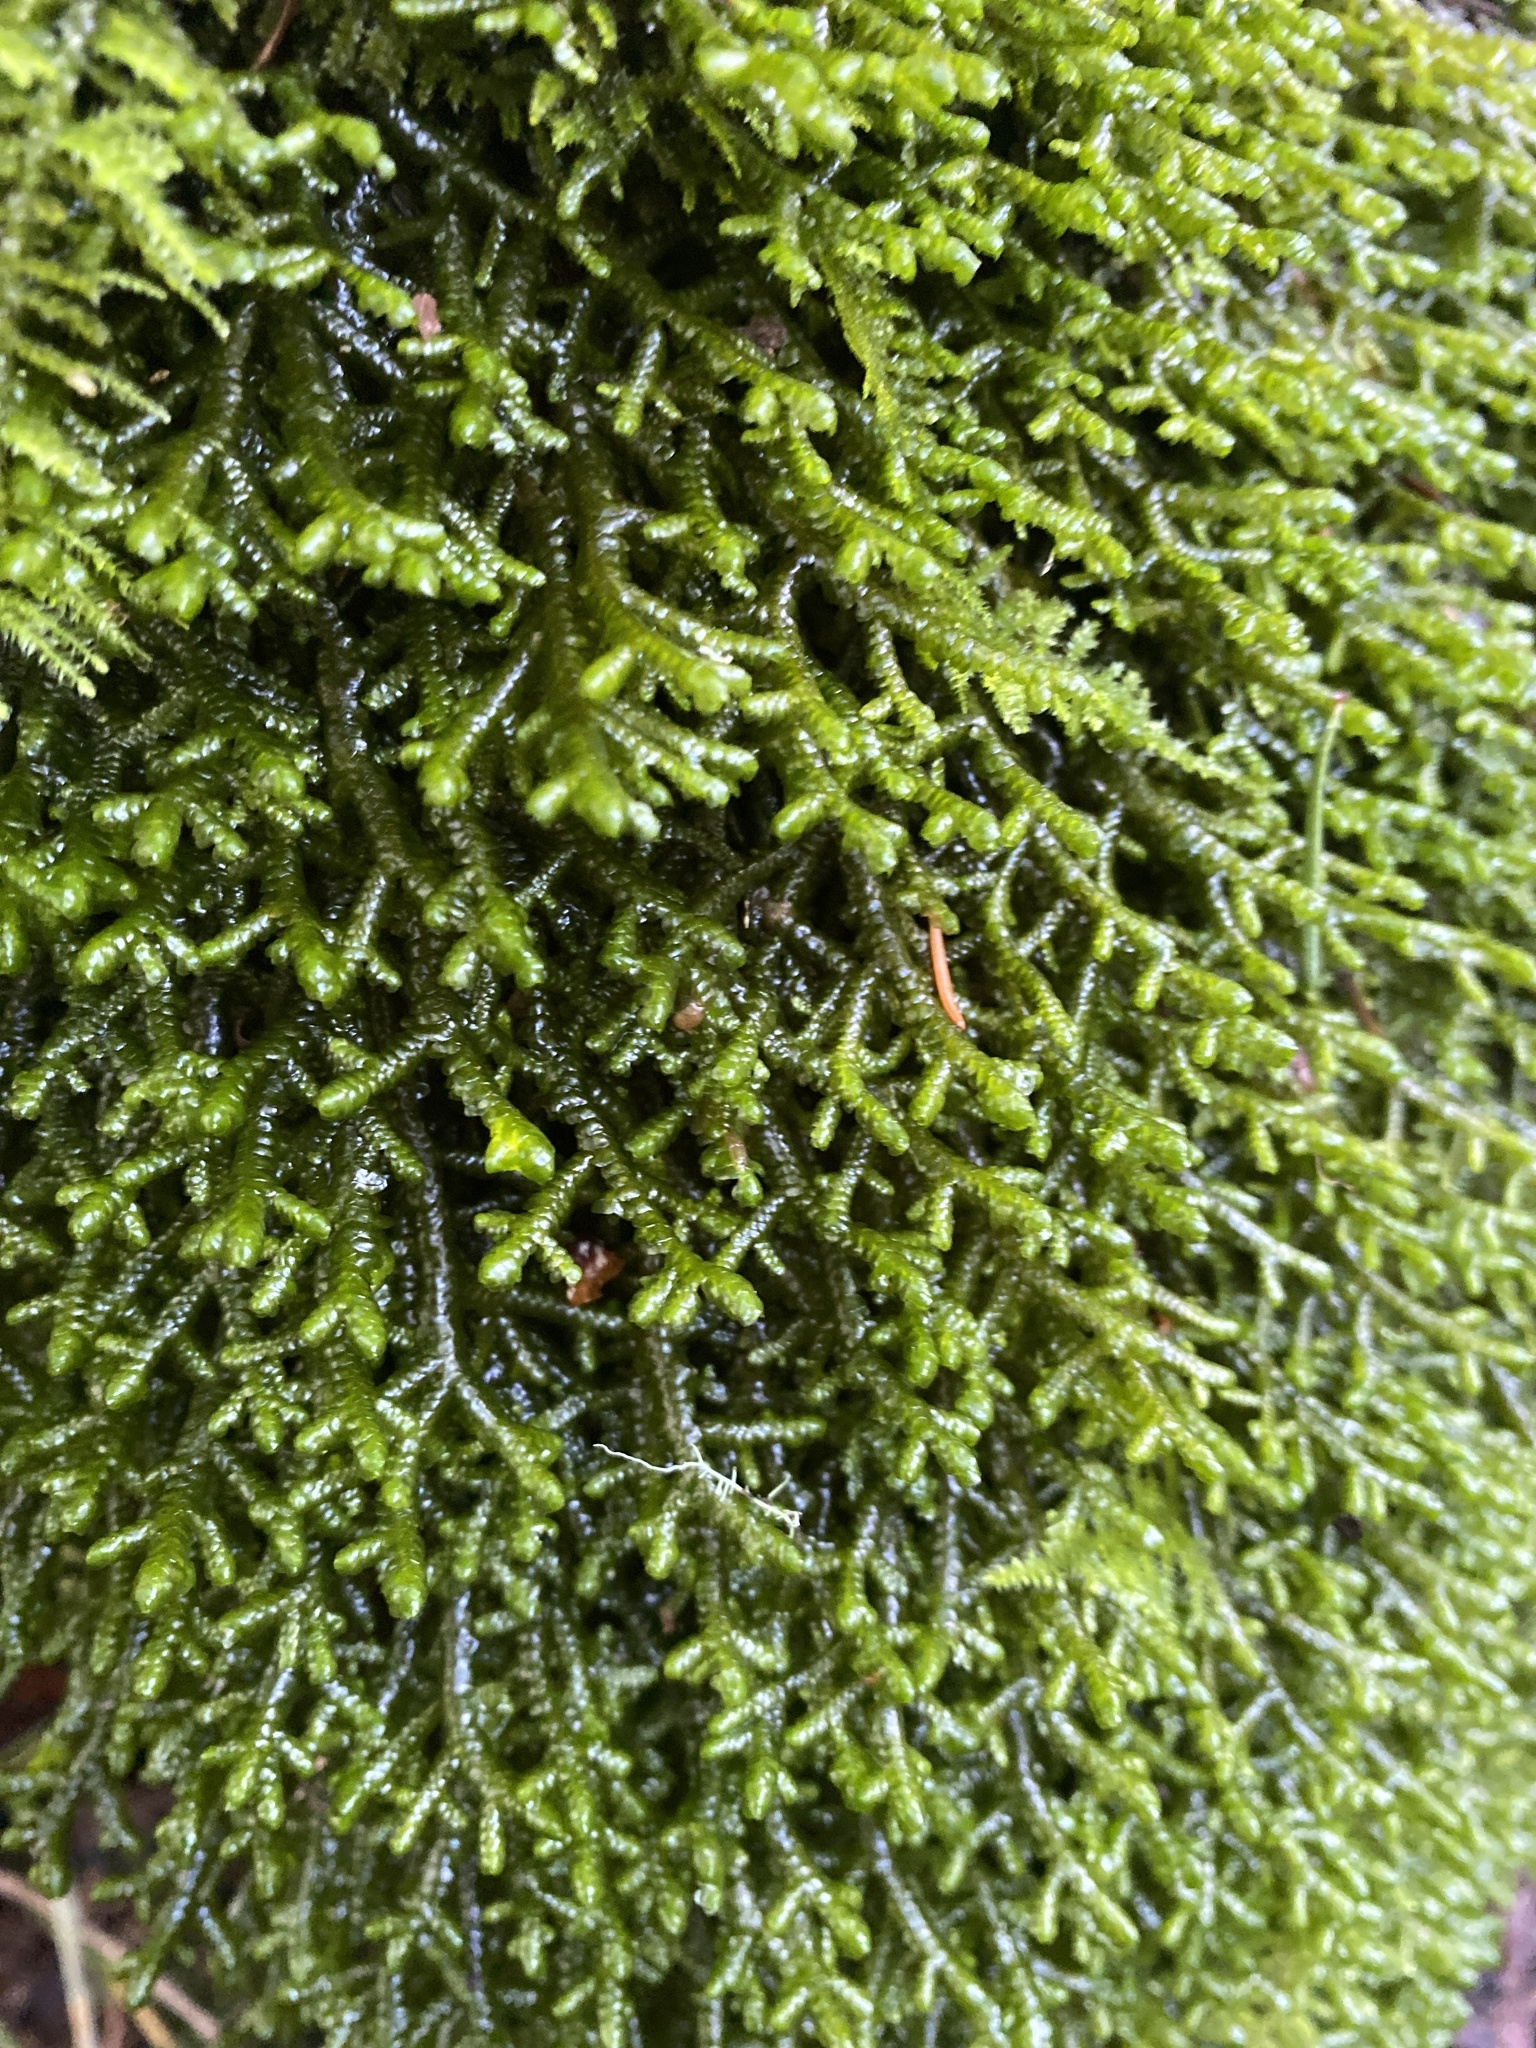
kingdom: Plantae
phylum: Marchantiophyta
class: Jungermanniopsida
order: Porellales
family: Porellaceae
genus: Porella
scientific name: Porella navicularis
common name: Tree ruffle liverwort
